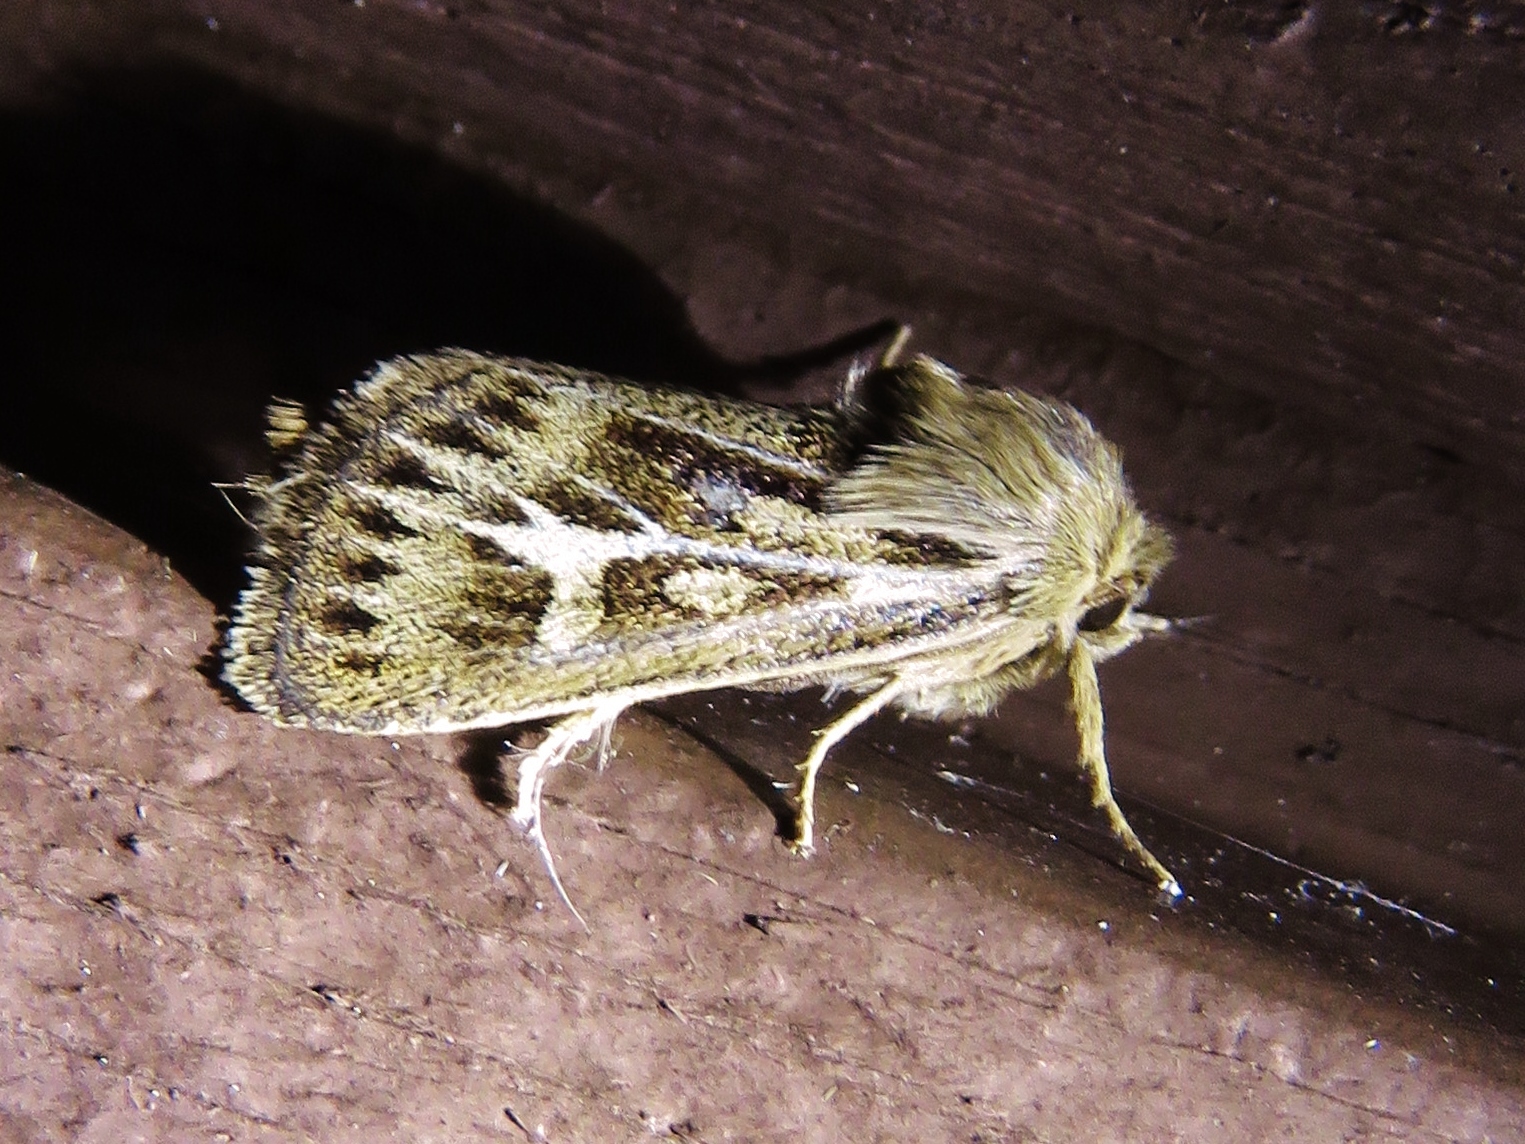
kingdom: Animalia
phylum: Arthropoda
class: Insecta
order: Lepidoptera
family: Noctuidae
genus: Cerapteryx
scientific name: Cerapteryx graminis
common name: Antler moth
